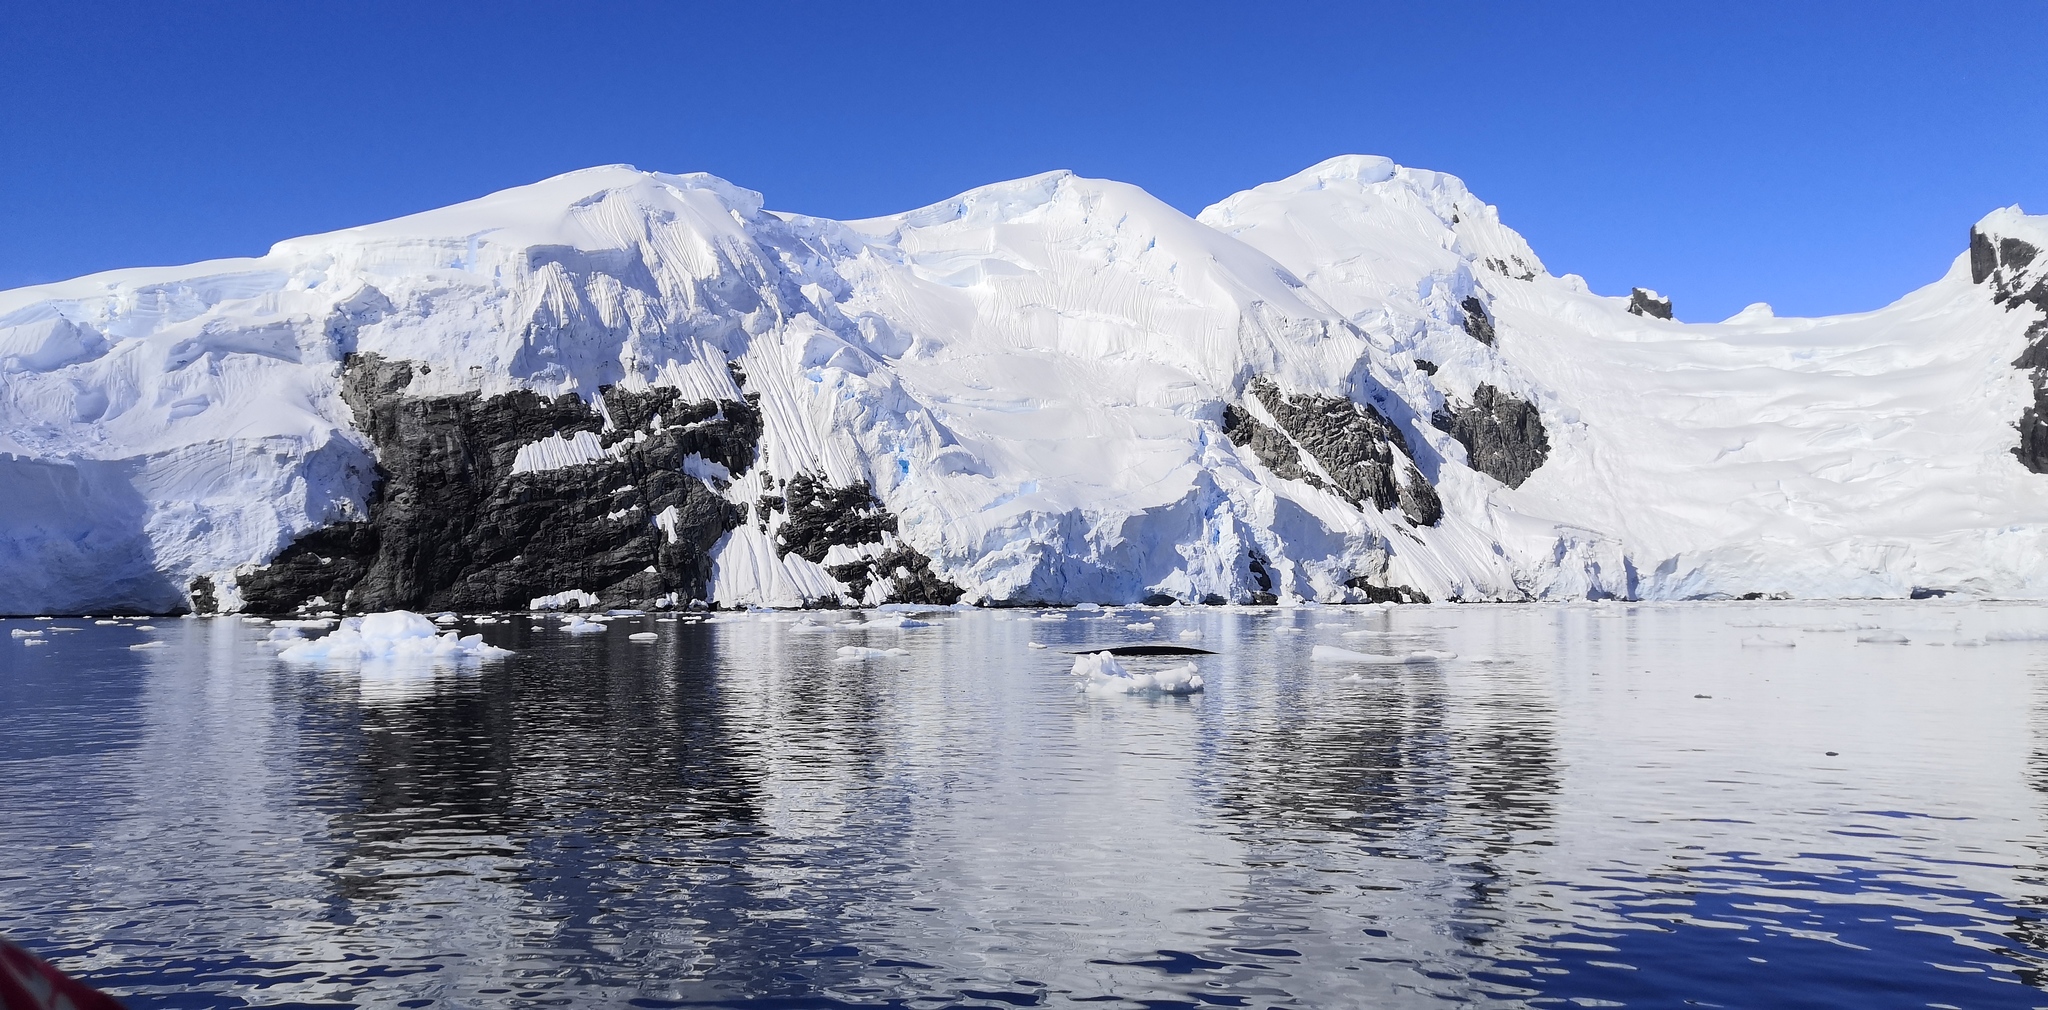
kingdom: Animalia
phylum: Chordata
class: Mammalia
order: Cetacea
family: Balaenopteridae
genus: Megaptera
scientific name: Megaptera novaeangliae
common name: Humpback whale
